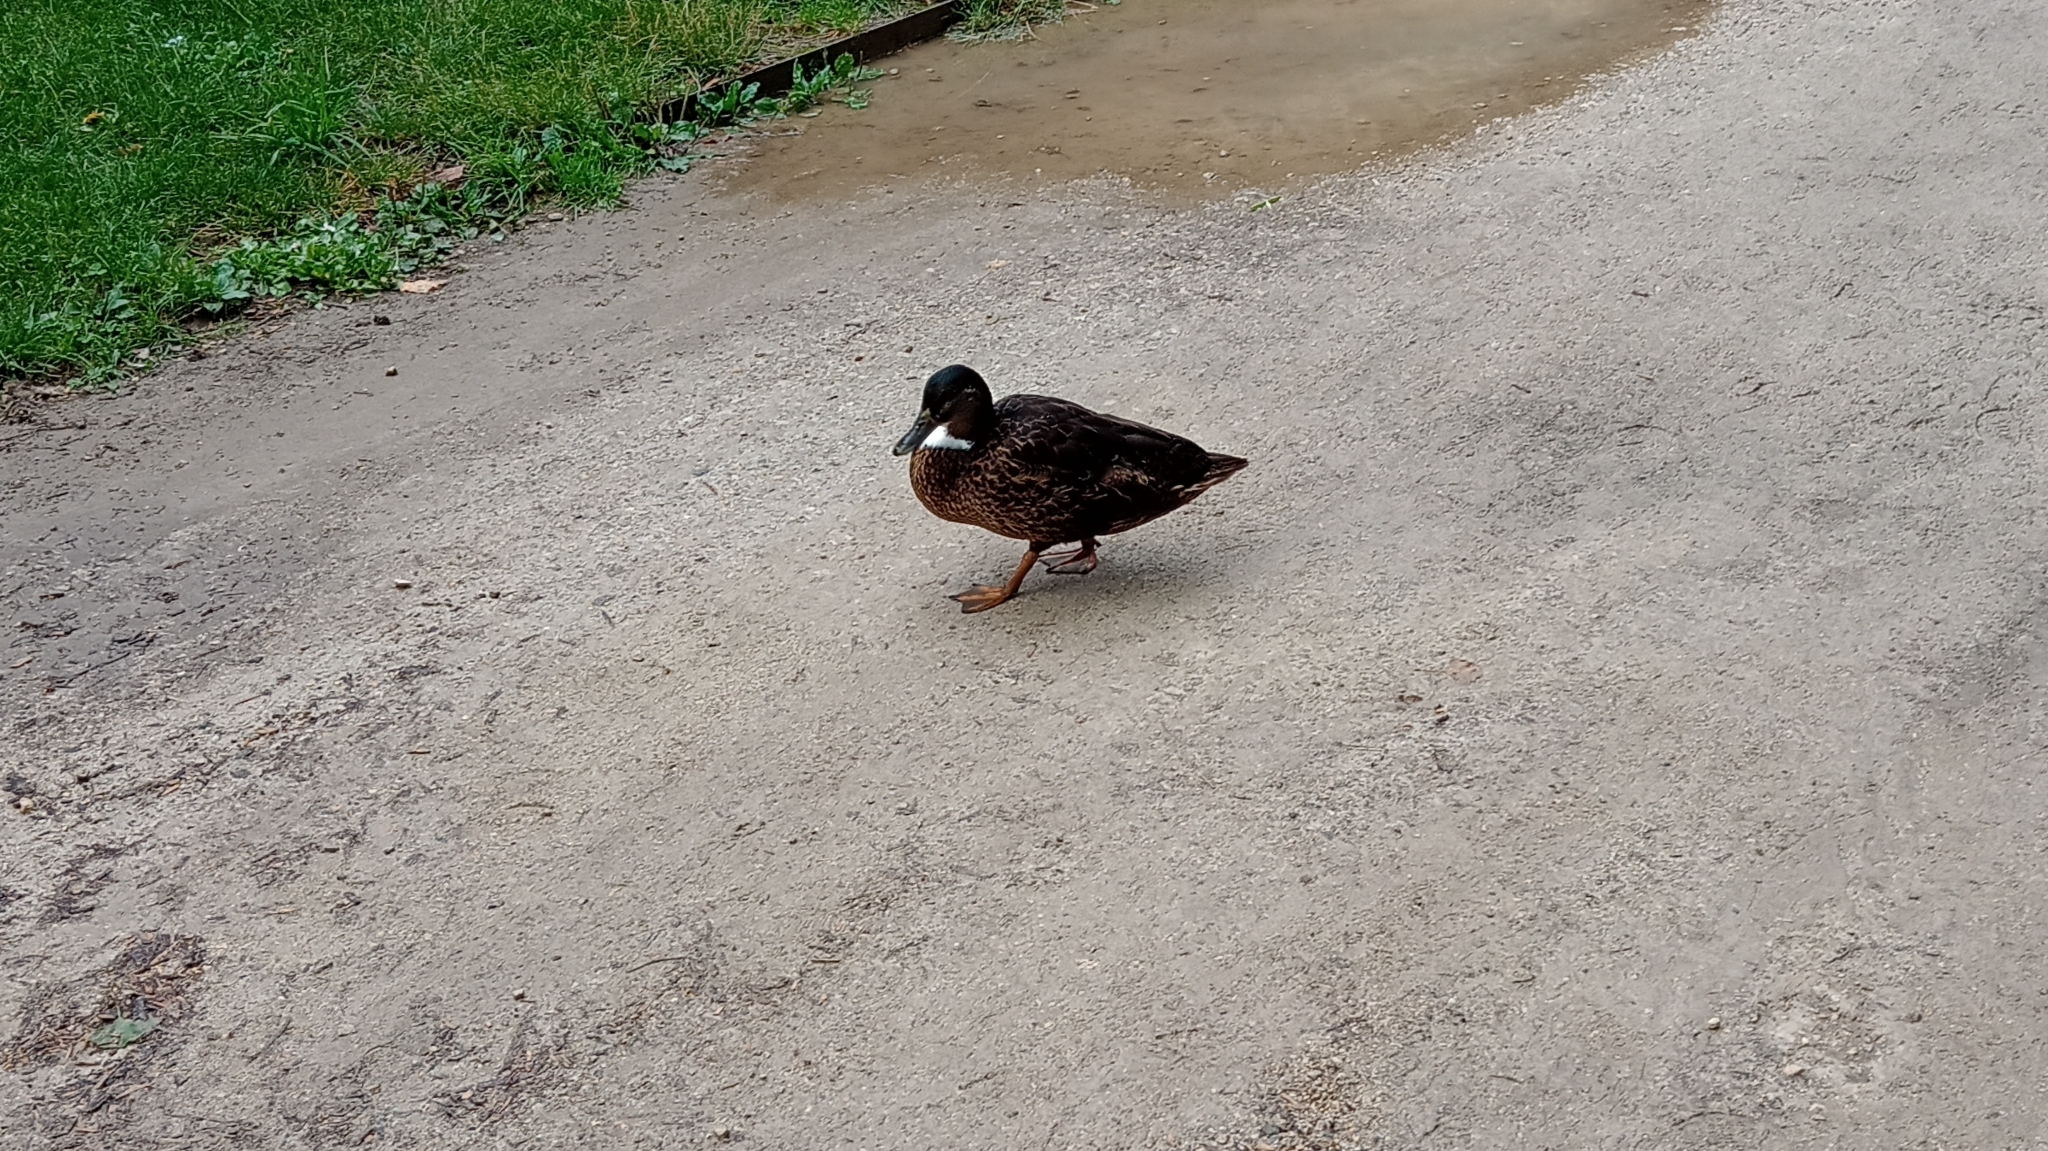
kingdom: Animalia
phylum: Chordata
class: Aves
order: Anseriformes
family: Anatidae
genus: Anas
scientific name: Anas platyrhynchos
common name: Mallard
